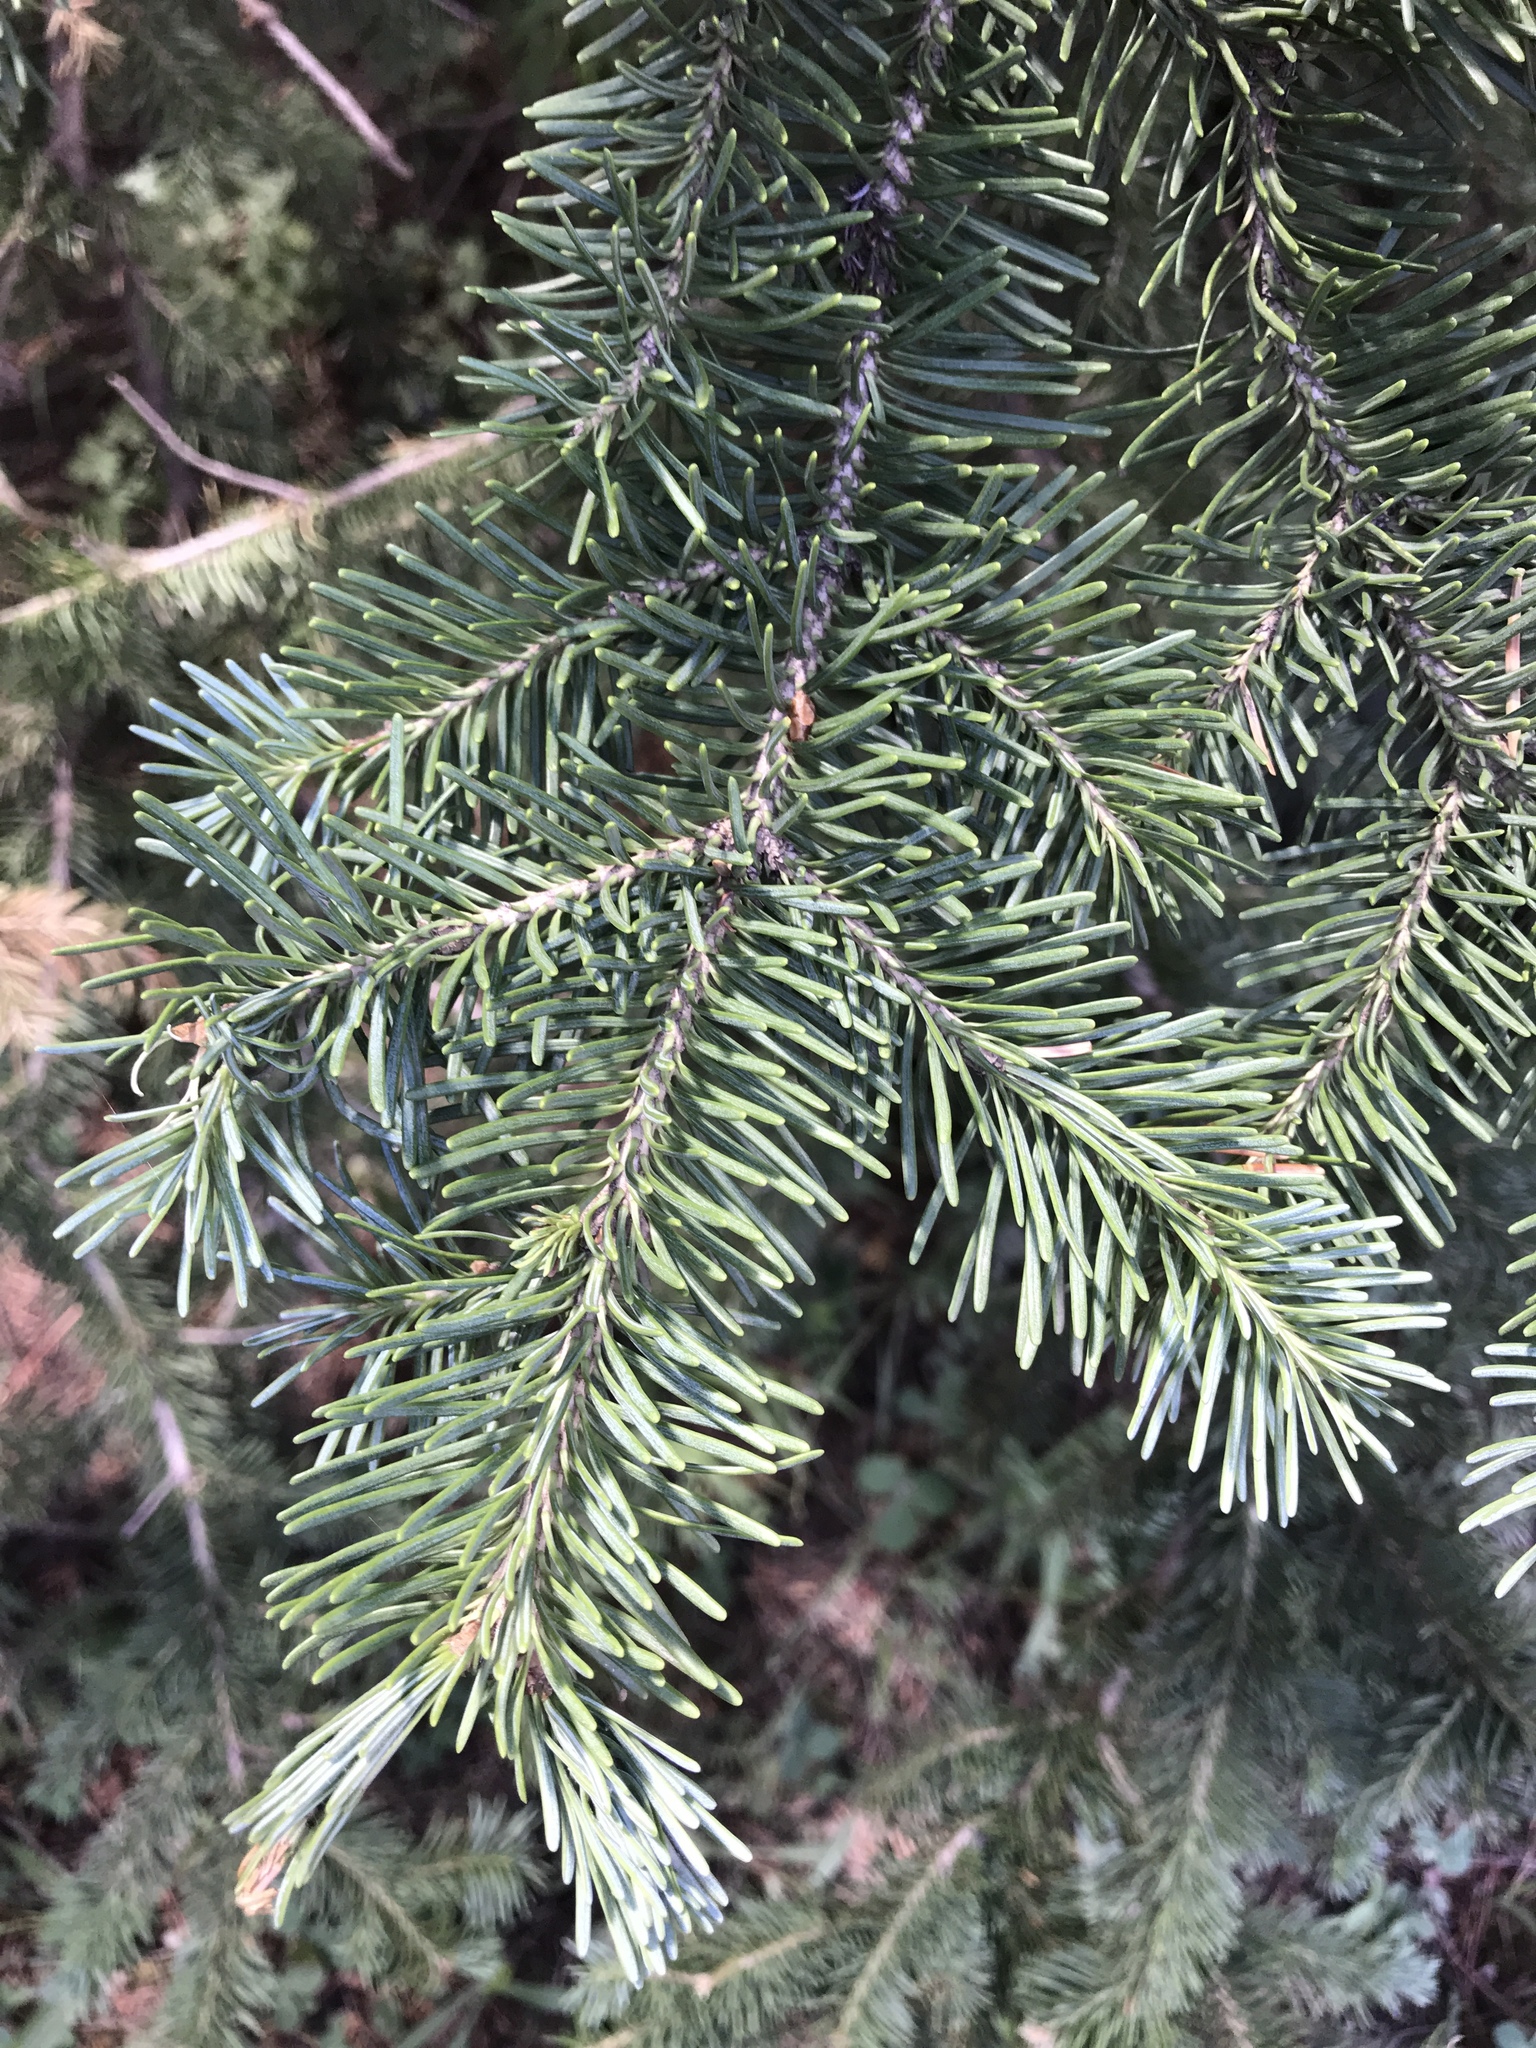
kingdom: Plantae
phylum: Tracheophyta
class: Pinopsida
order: Pinales
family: Pinaceae
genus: Abies
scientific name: Abies lasiocarpa
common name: Subalpine fir
